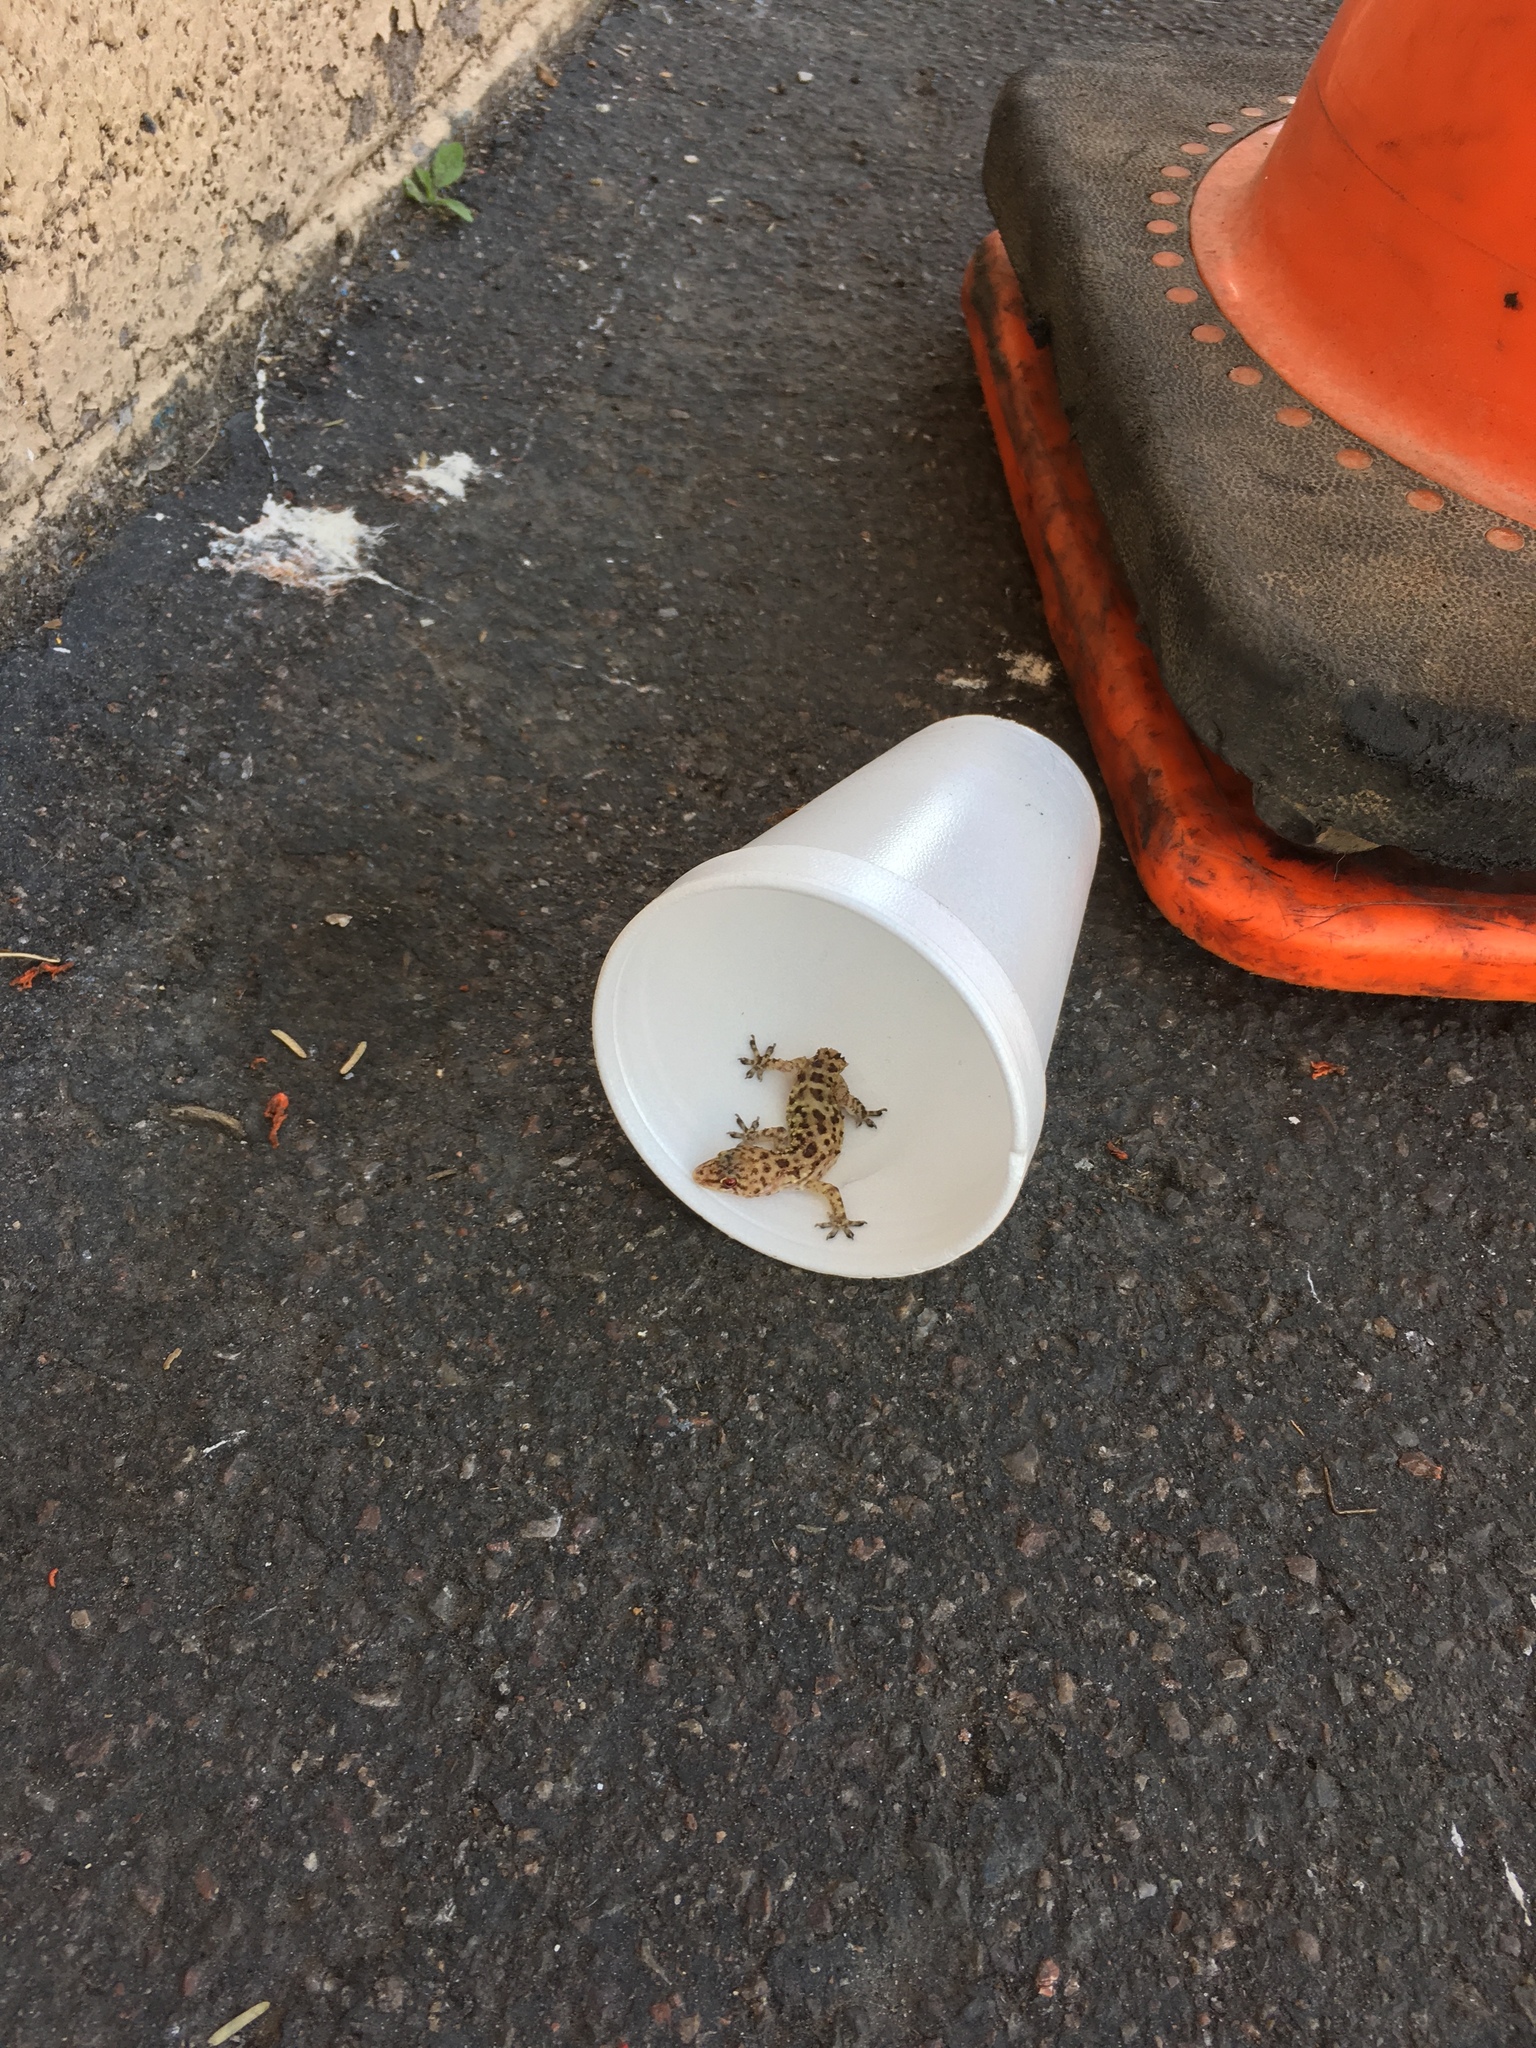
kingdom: Animalia
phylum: Chordata
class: Squamata
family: Gekkonidae
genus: Hemidactylus
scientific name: Hemidactylus turcicus
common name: Turkish gecko
